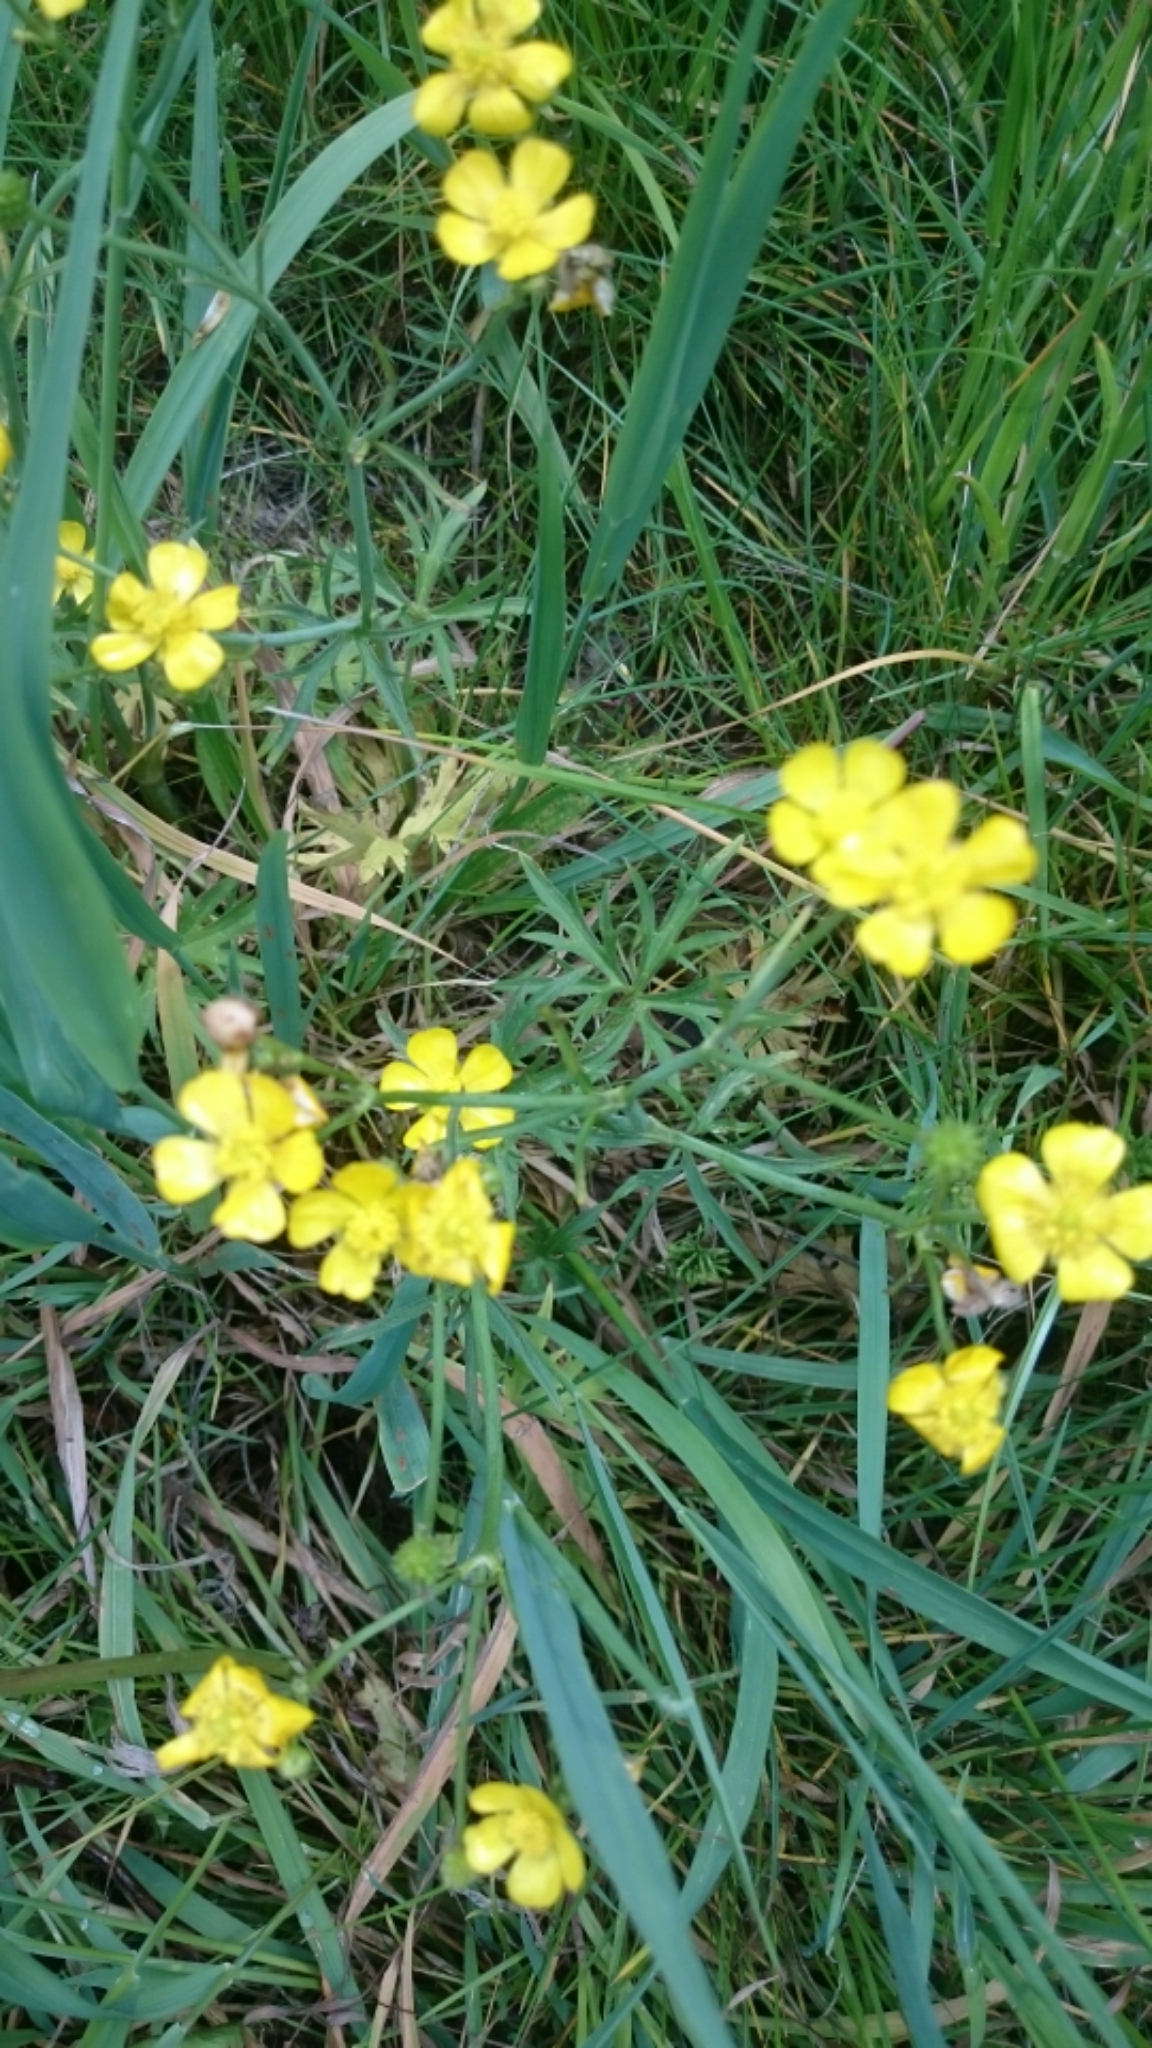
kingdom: Plantae
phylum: Tracheophyta
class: Magnoliopsida
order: Ranunculales
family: Ranunculaceae
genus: Ranunculus
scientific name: Ranunculus acris
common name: Meadow buttercup
